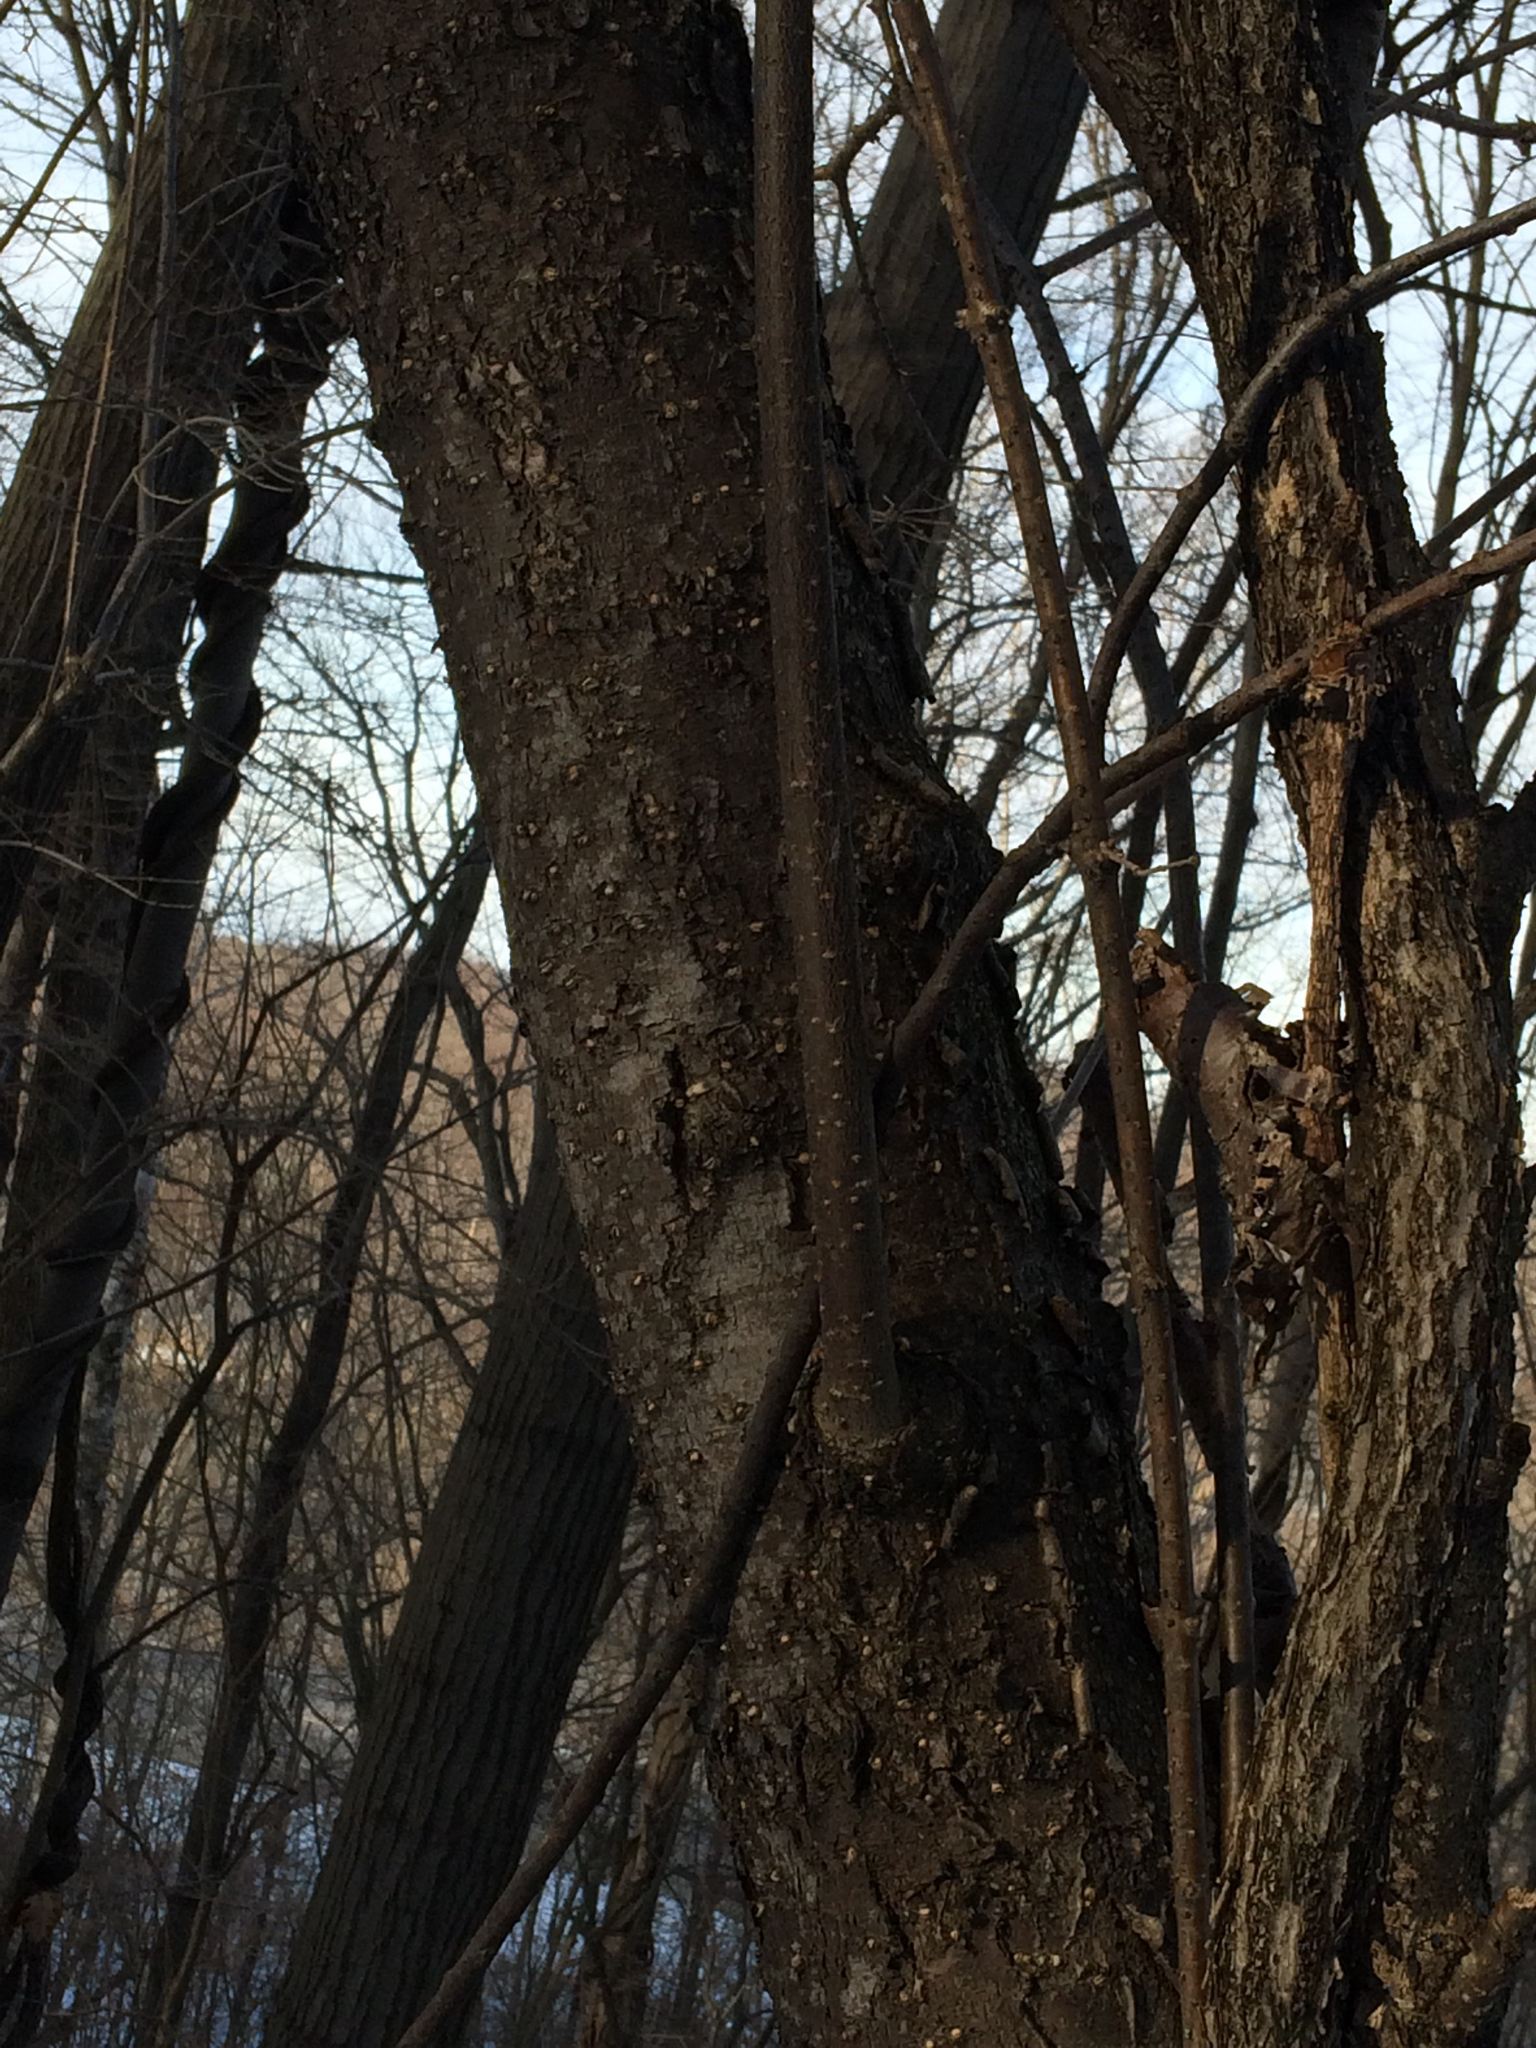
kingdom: Plantae
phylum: Tracheophyta
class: Magnoliopsida
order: Rosales
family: Rosaceae
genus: Prunus
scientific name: Prunus pensylvanica
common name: Pin cherry
